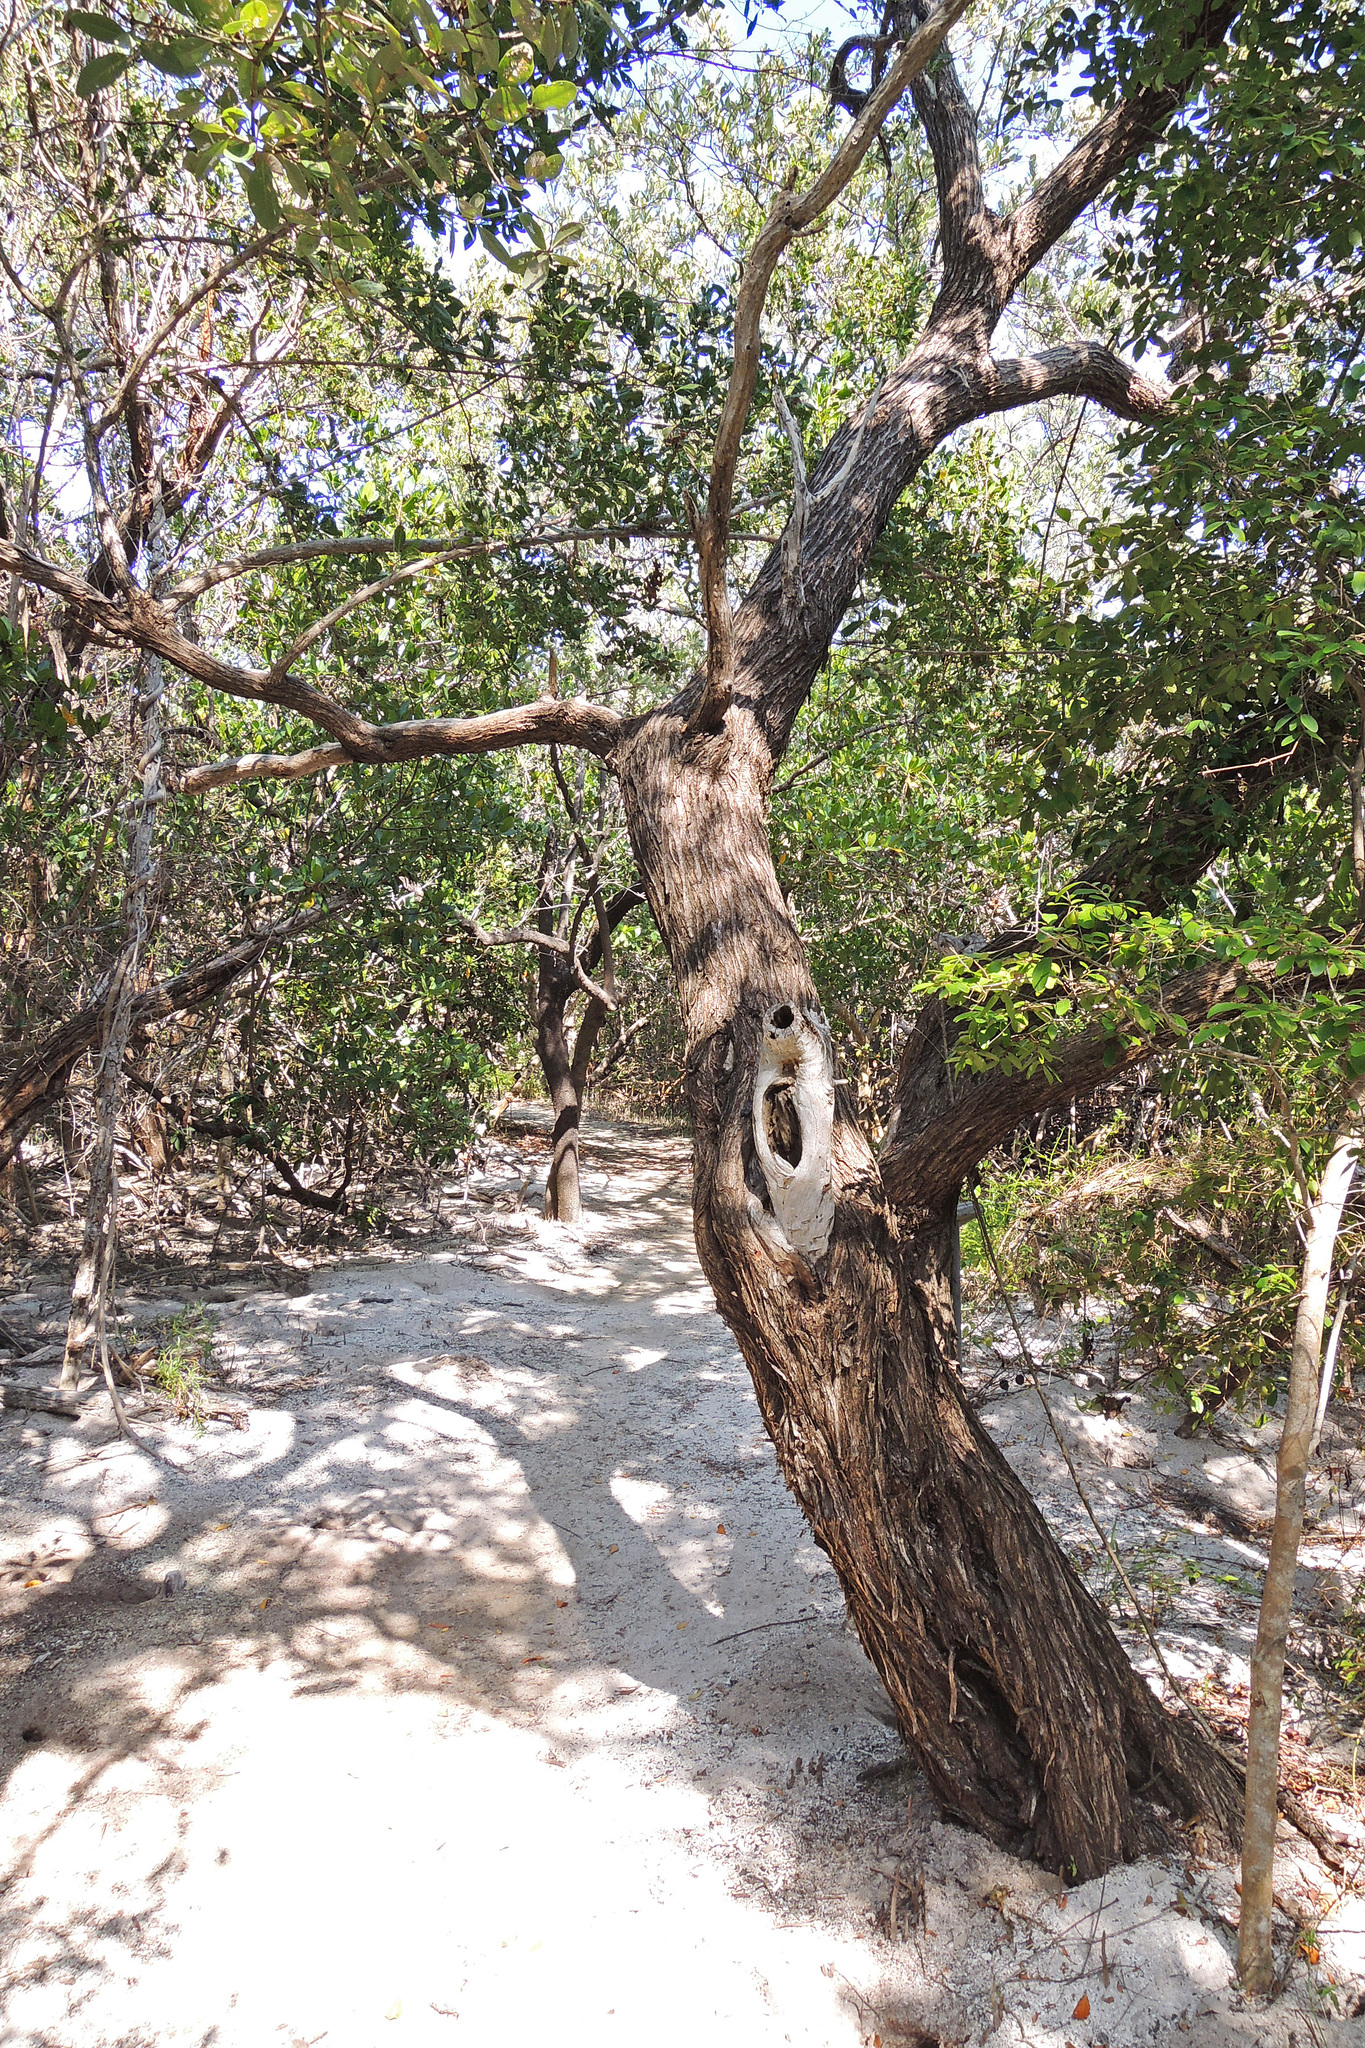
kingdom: Plantae
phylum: Tracheophyta
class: Magnoliopsida
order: Myrtales
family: Combretaceae
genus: Conocarpus
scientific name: Conocarpus erectus
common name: Button mangrove
